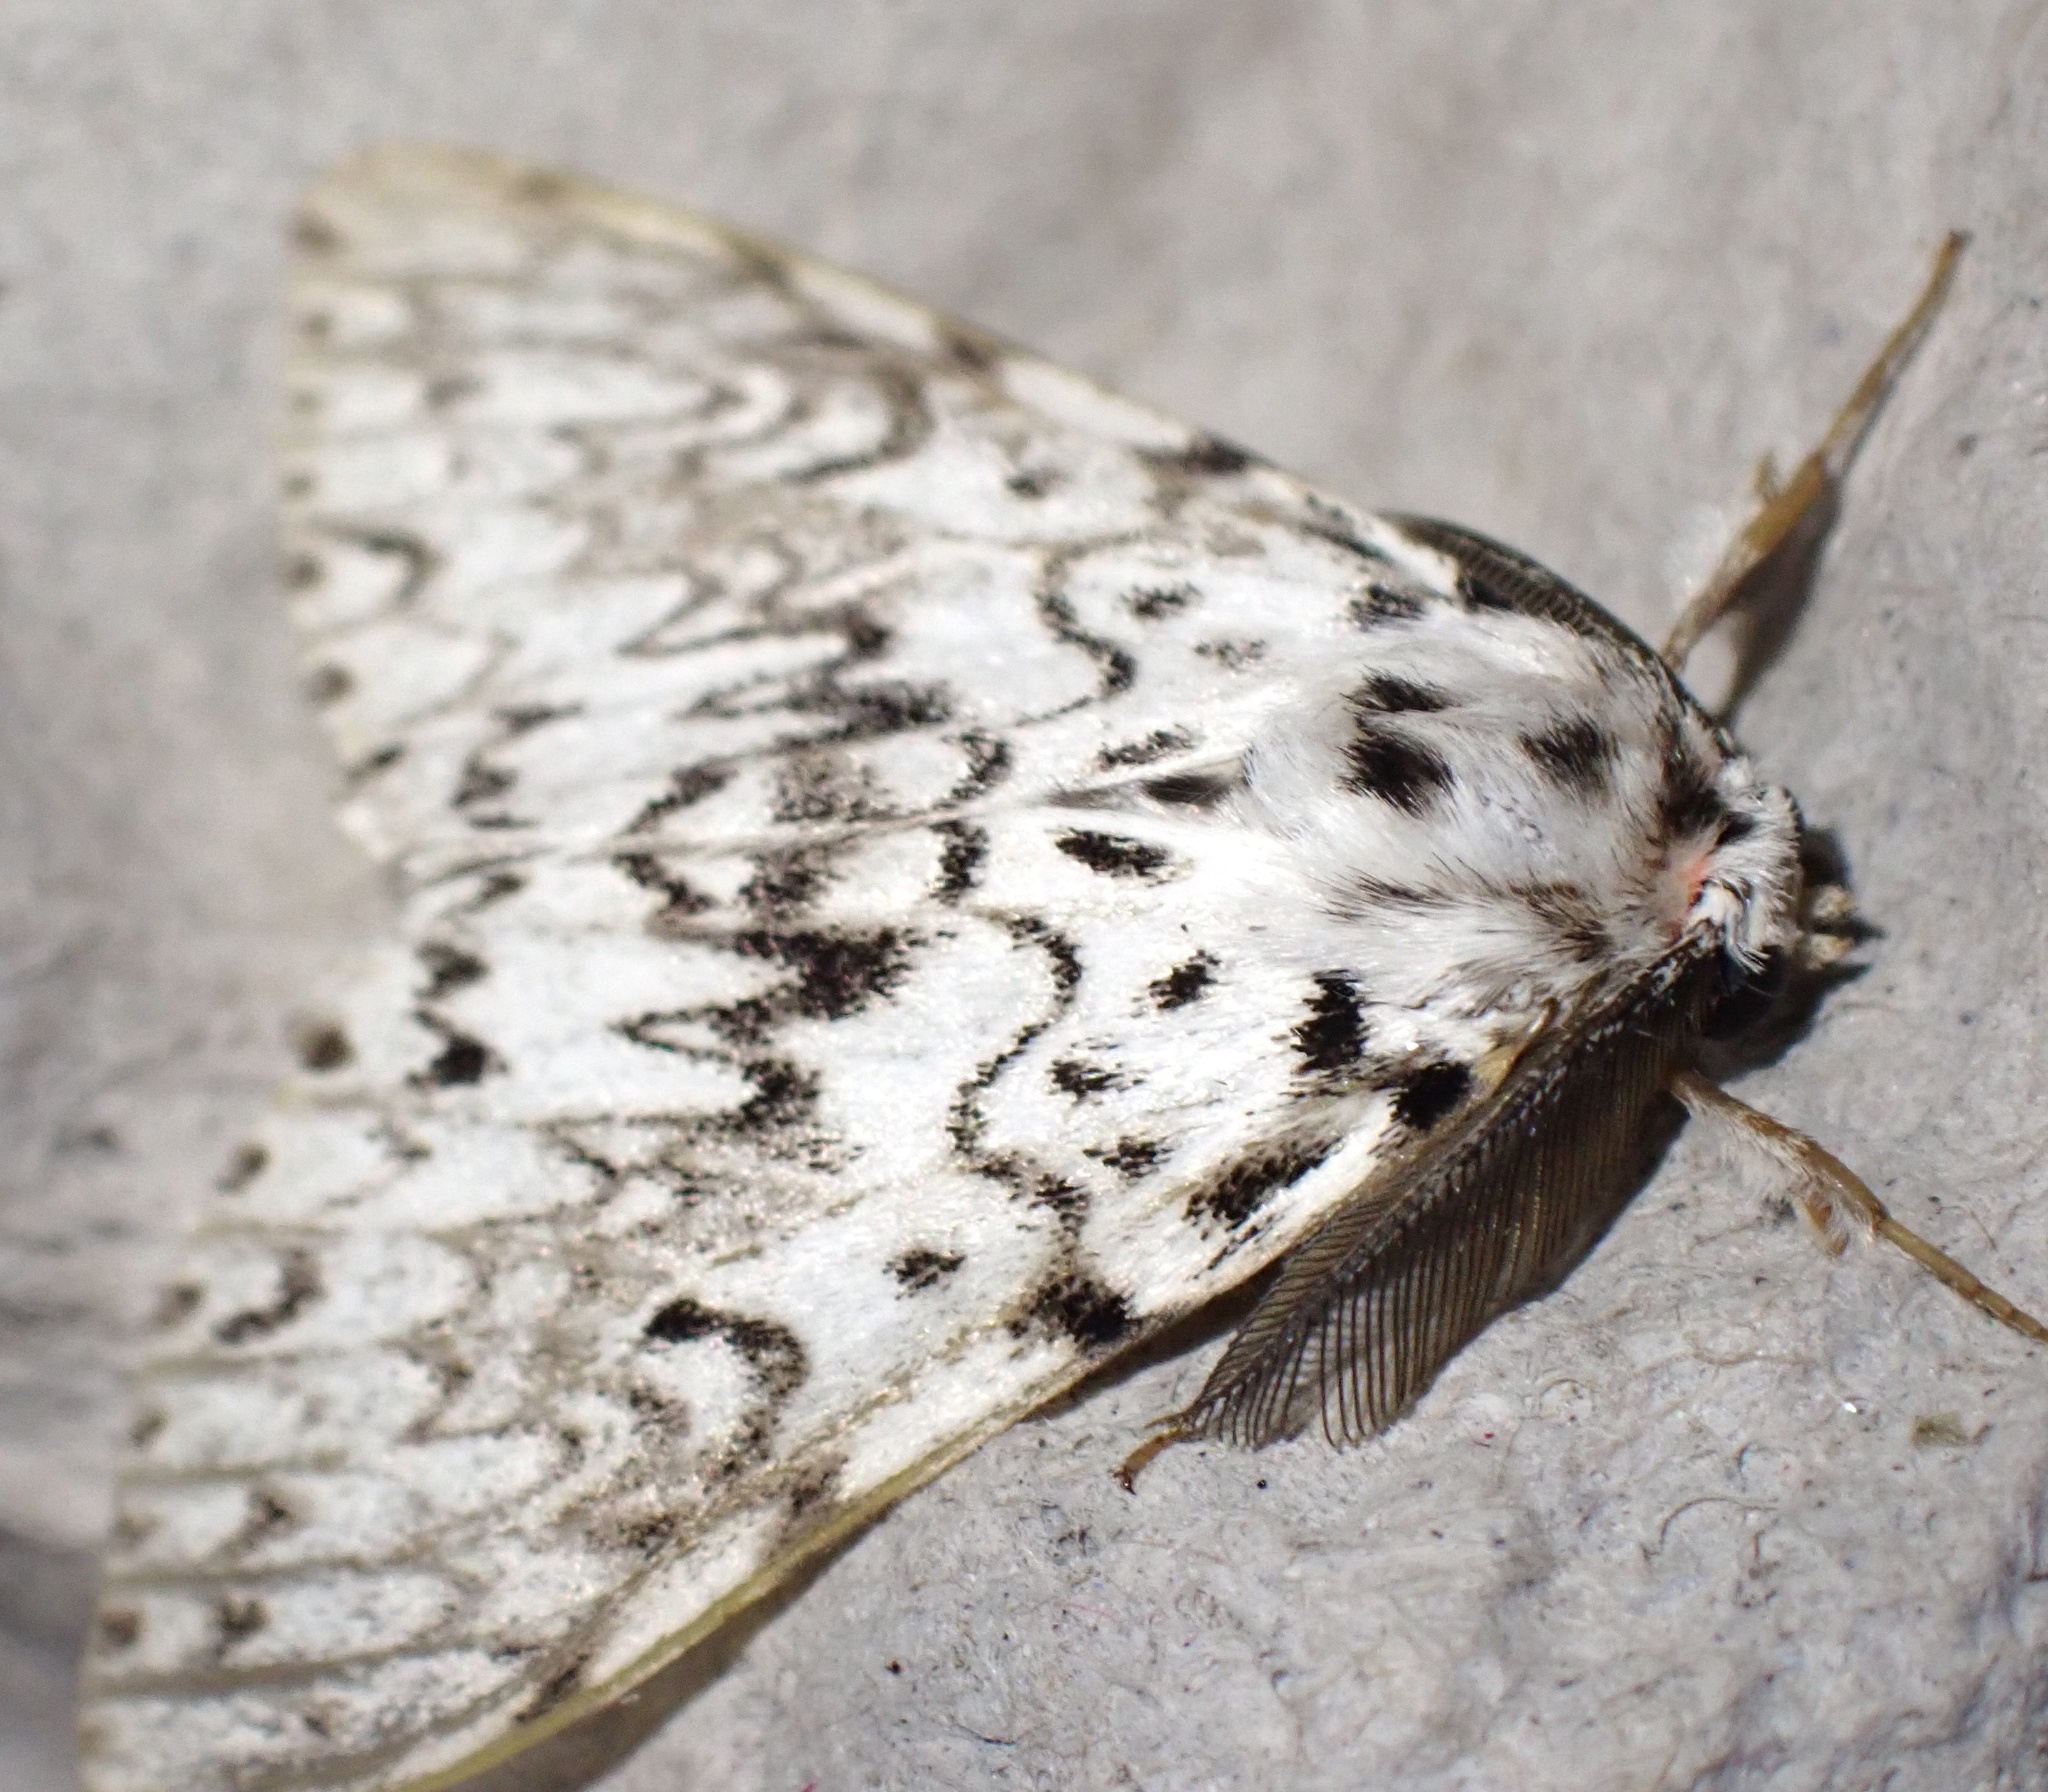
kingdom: Animalia
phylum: Arthropoda
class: Insecta
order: Lepidoptera
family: Erebidae
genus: Lymantria
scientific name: Lymantria monacha
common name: Black arches
